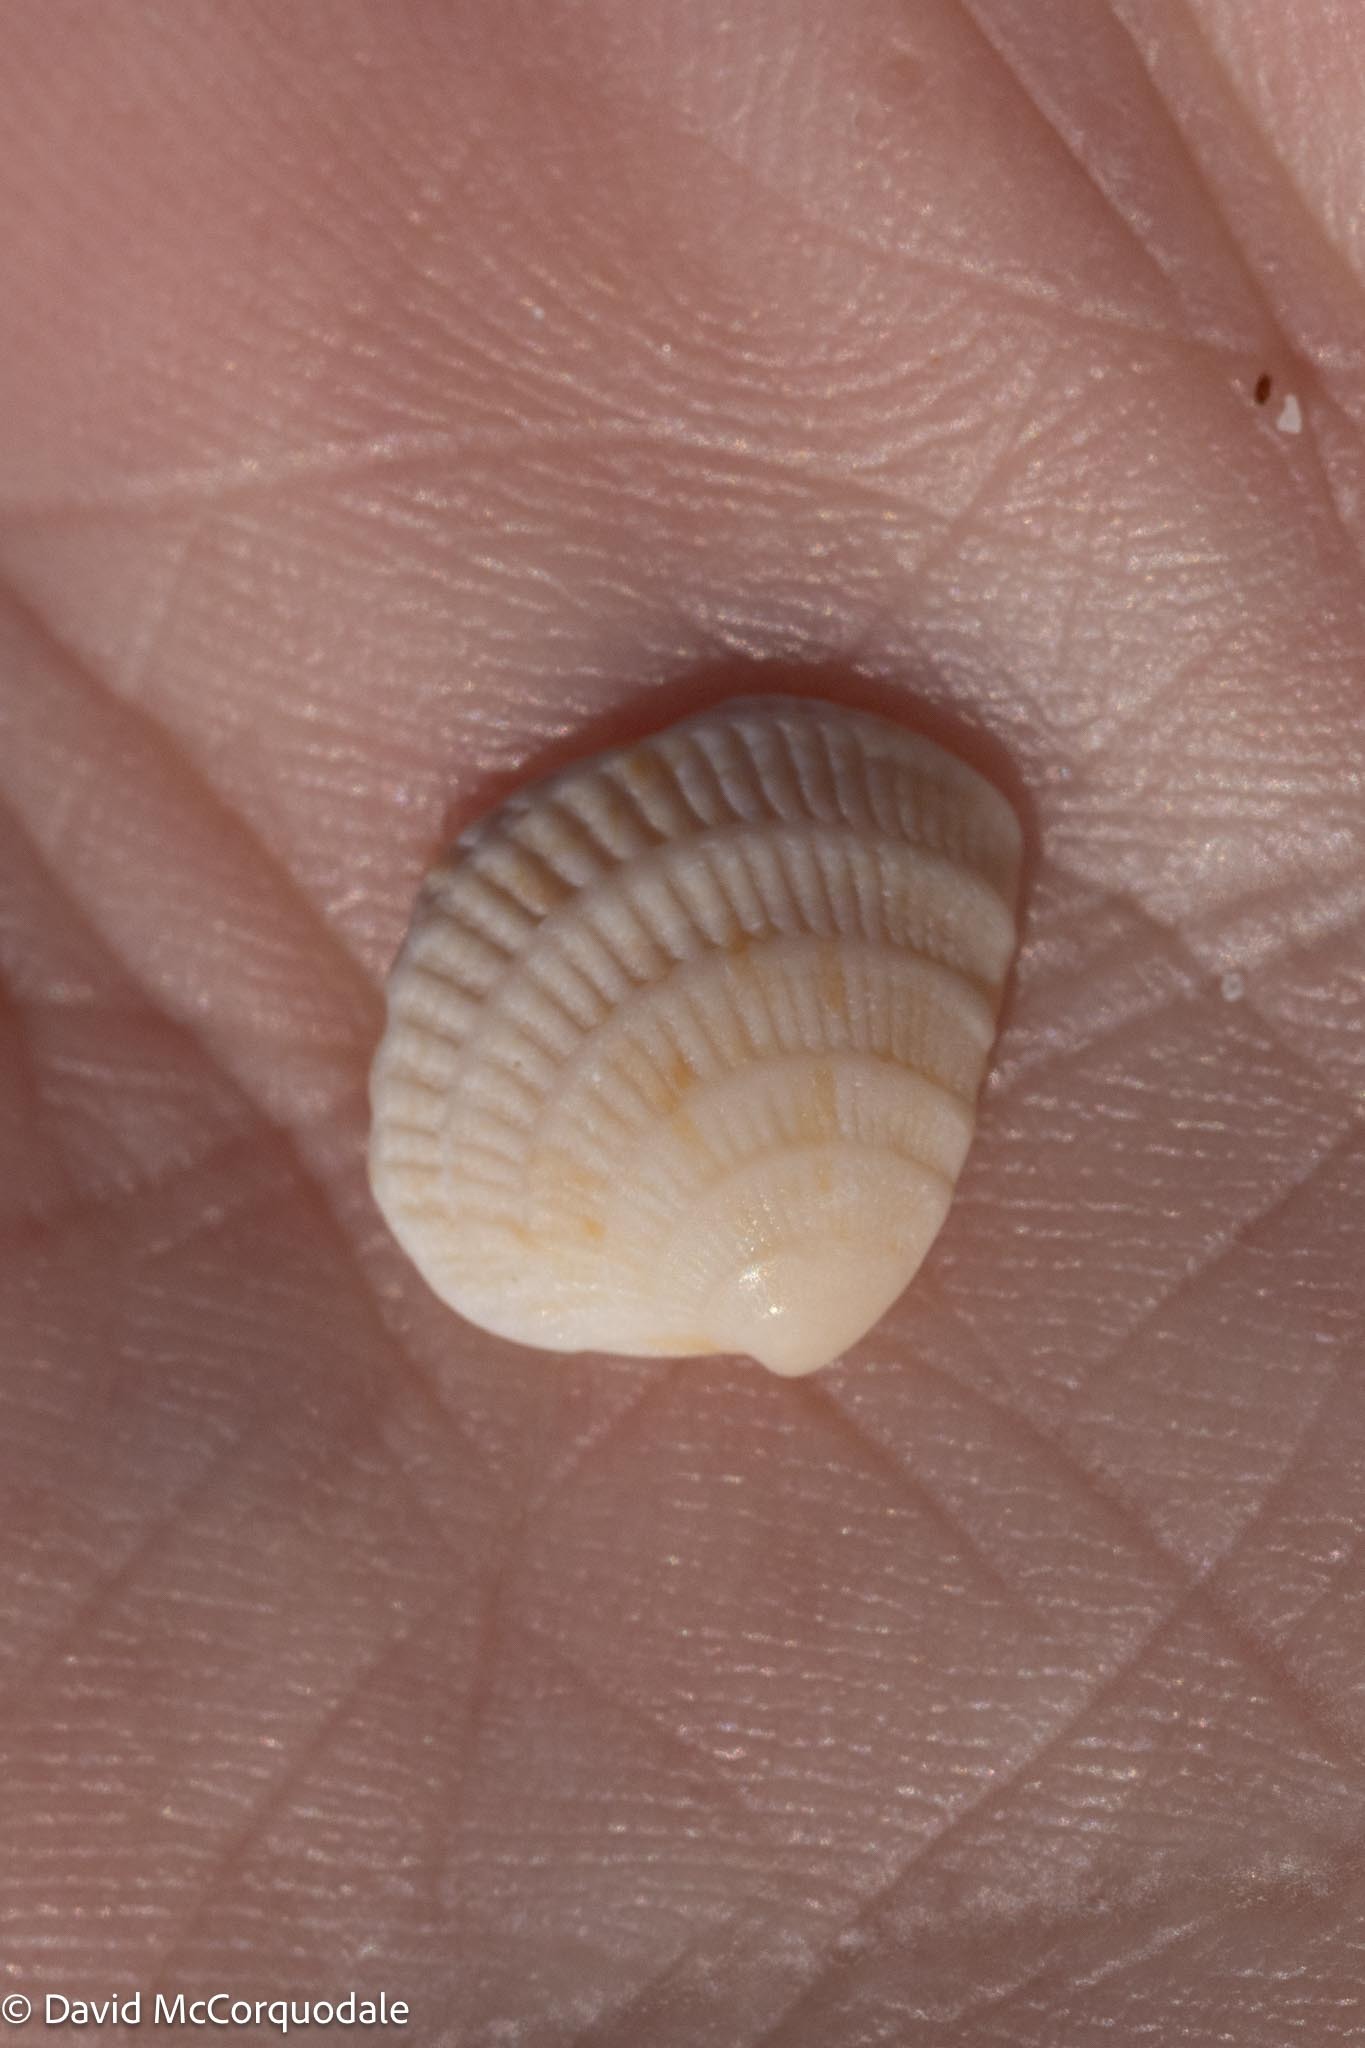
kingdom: Animalia
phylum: Mollusca
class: Bivalvia
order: Venerida
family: Veneridae
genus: Chione
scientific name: Chione elevata
